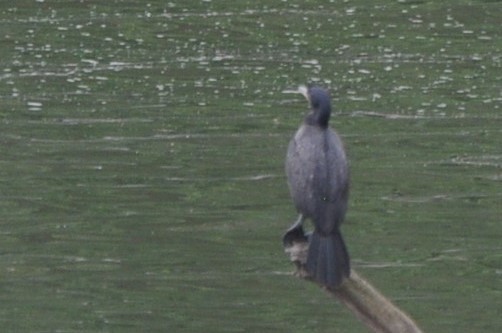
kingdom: Animalia
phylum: Chordata
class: Aves
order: Suliformes
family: Phalacrocoracidae
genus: Phalacrocorax
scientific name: Phalacrocorax auritus
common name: Double-crested cormorant
